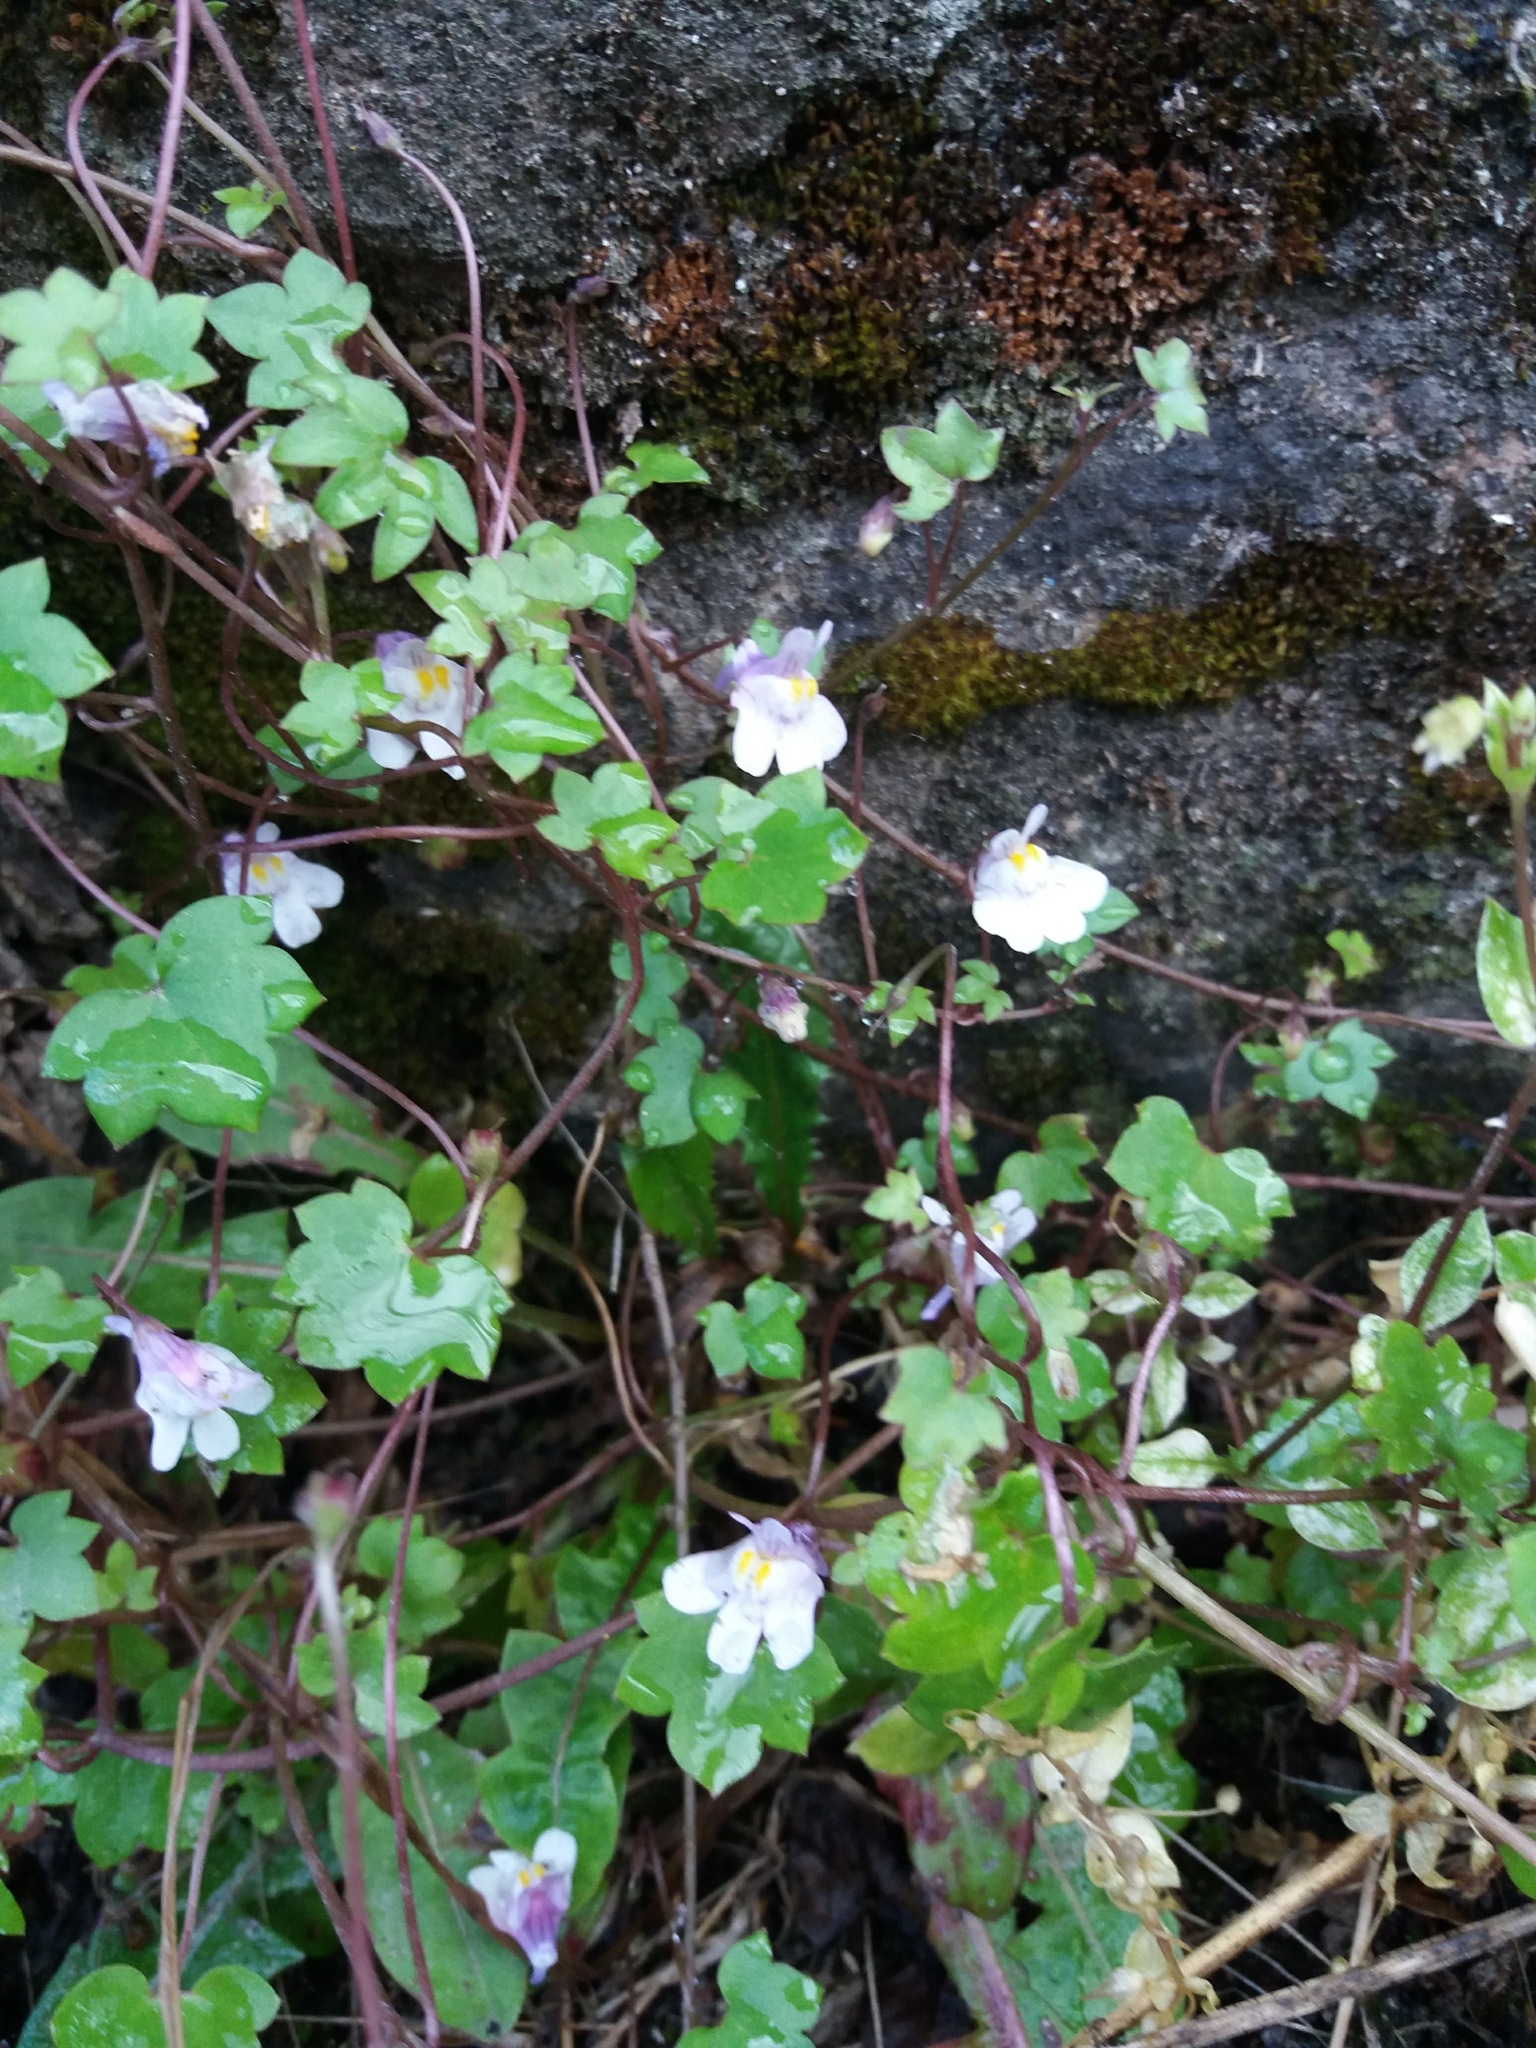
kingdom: Plantae
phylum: Tracheophyta
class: Magnoliopsida
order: Lamiales
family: Plantaginaceae
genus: Cymbalaria
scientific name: Cymbalaria muralis
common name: Ivy-leaved toadflax
